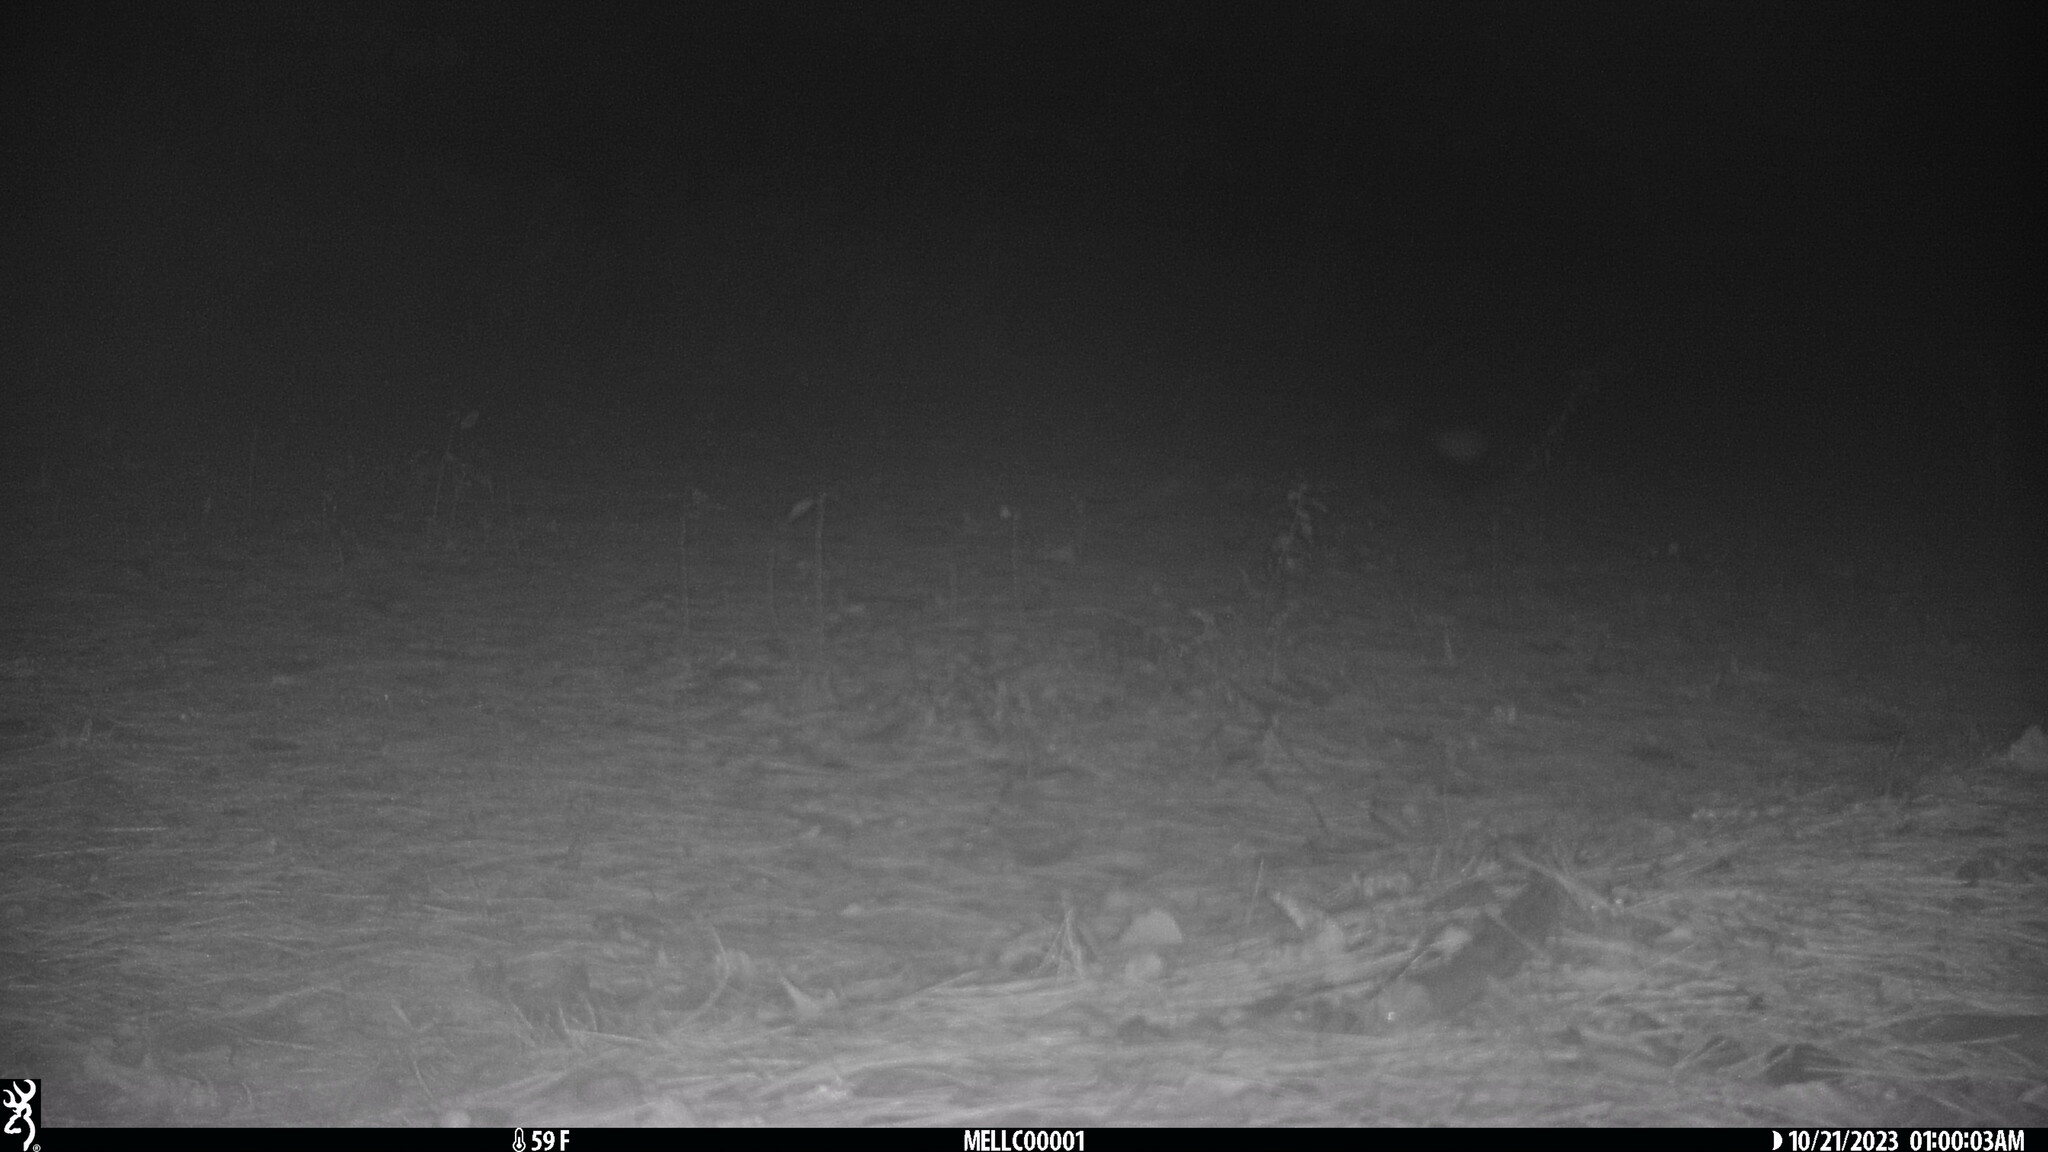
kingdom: Animalia
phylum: Chordata
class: Mammalia
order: Carnivora
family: Mephitidae
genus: Mephitis
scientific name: Mephitis mephitis
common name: Striped skunk
